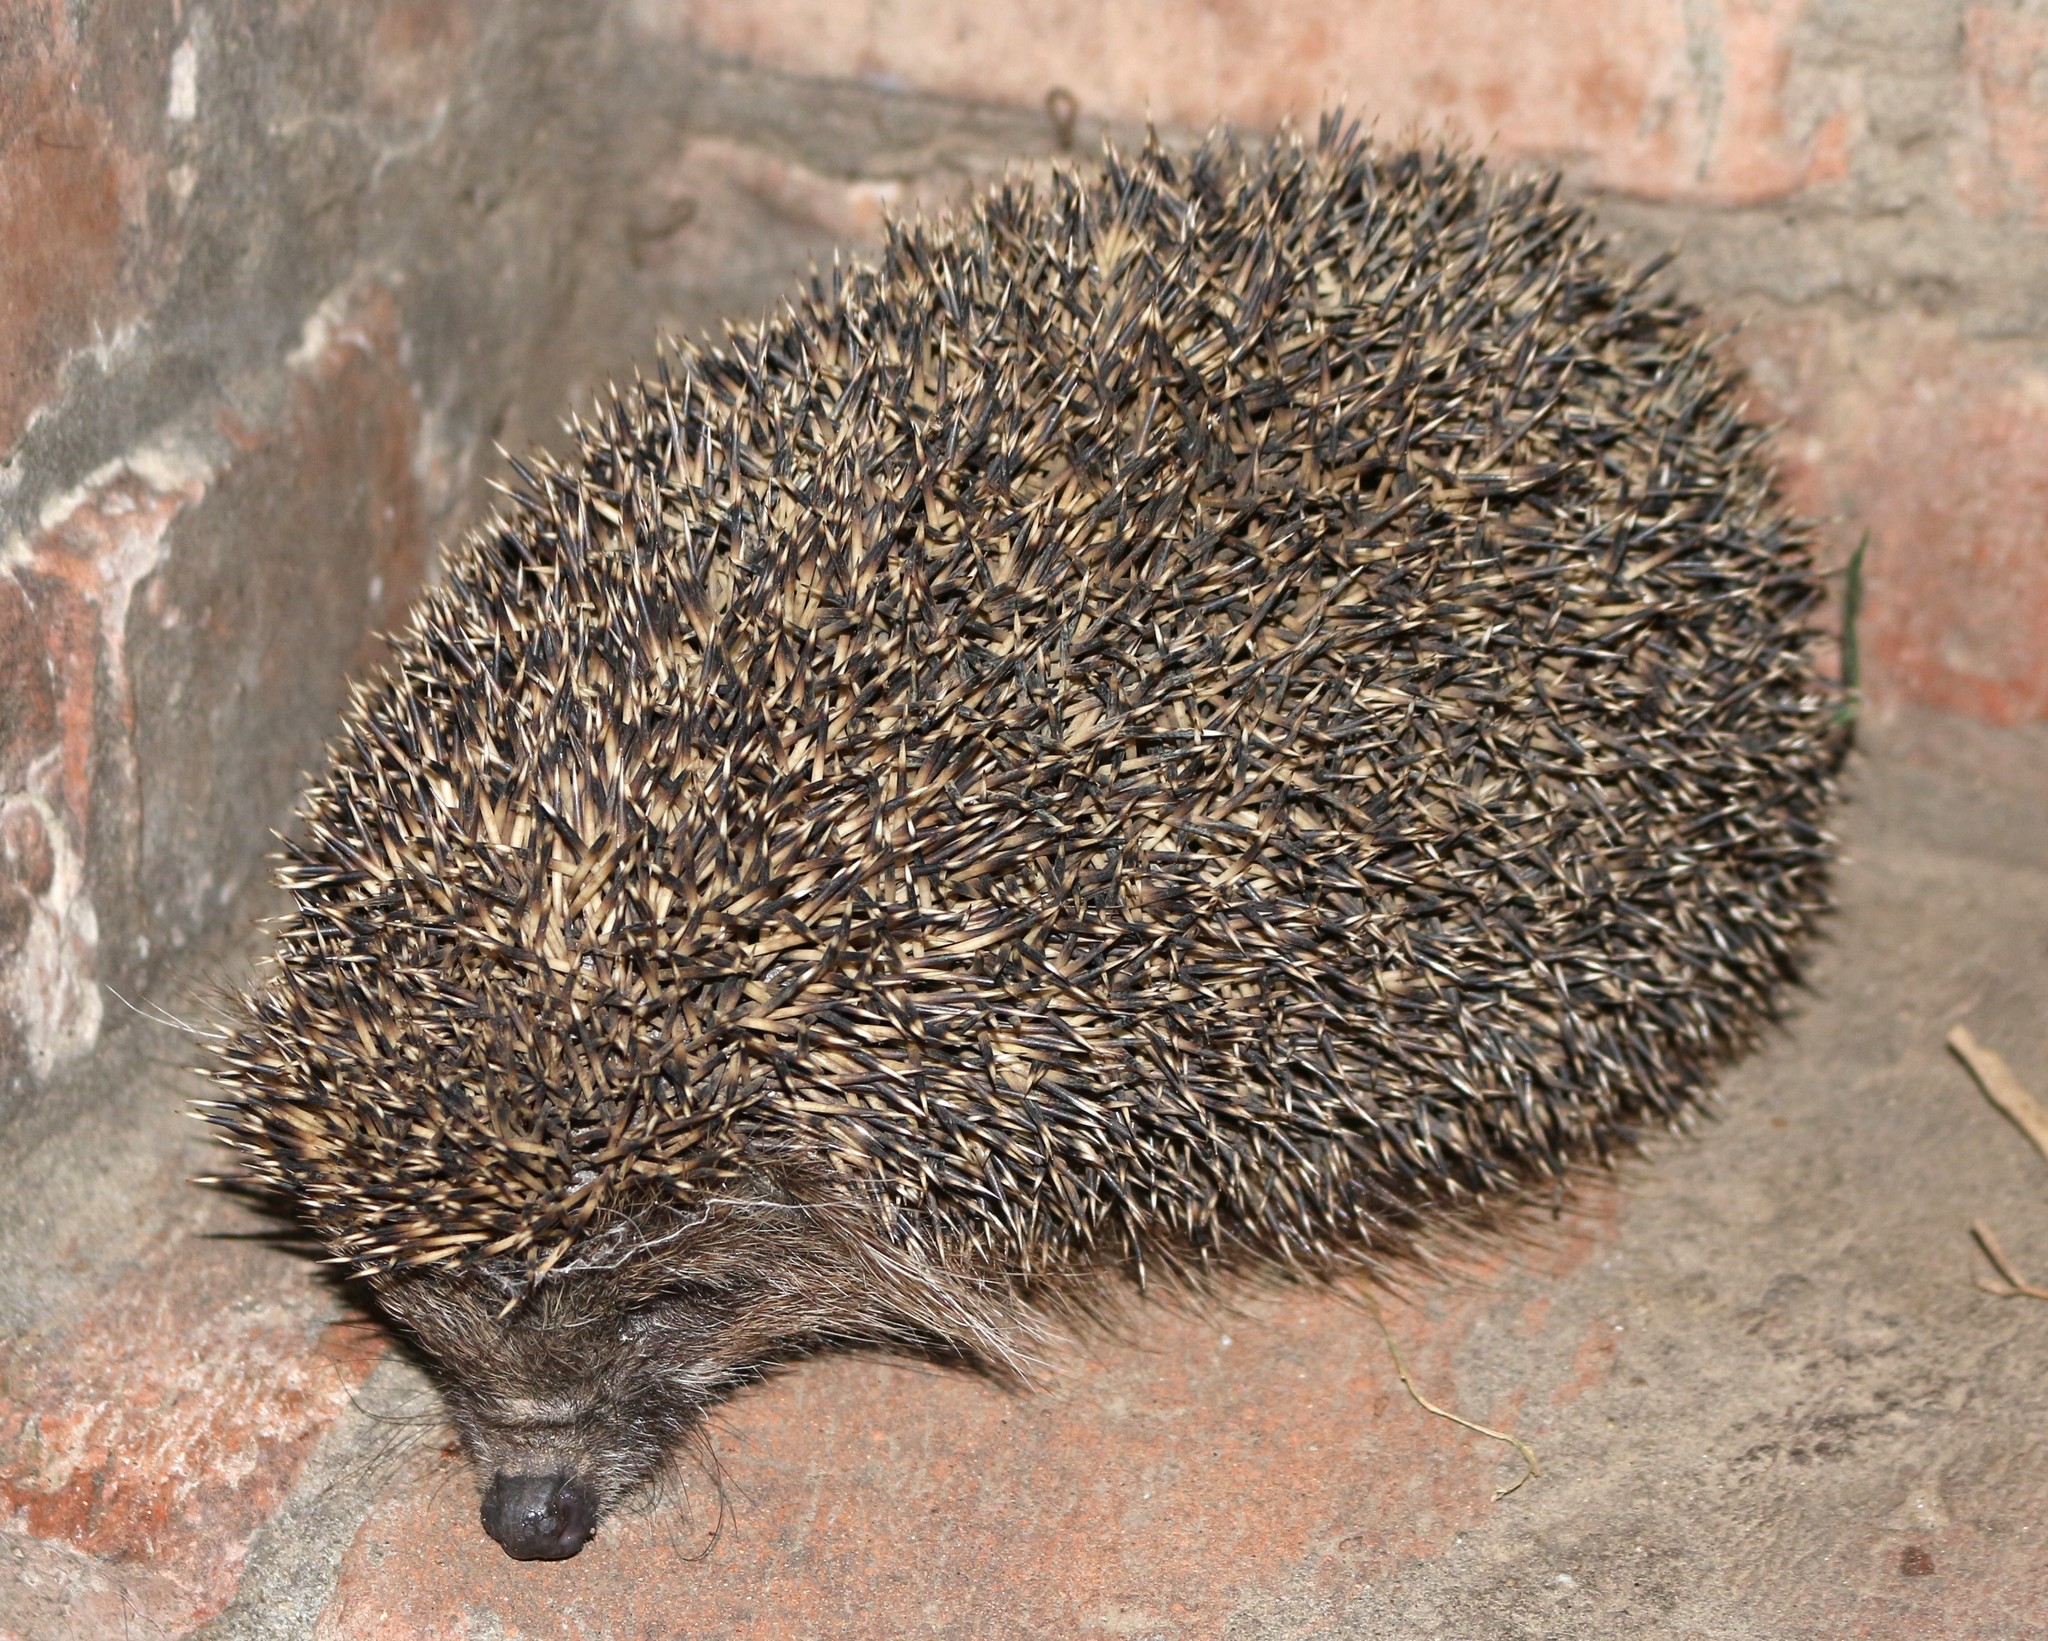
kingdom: Animalia
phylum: Chordata
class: Mammalia
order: Erinaceomorpha
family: Erinaceidae
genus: Erinaceus
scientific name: Erinaceus roumanicus
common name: Northern white-breasted hedgehog
